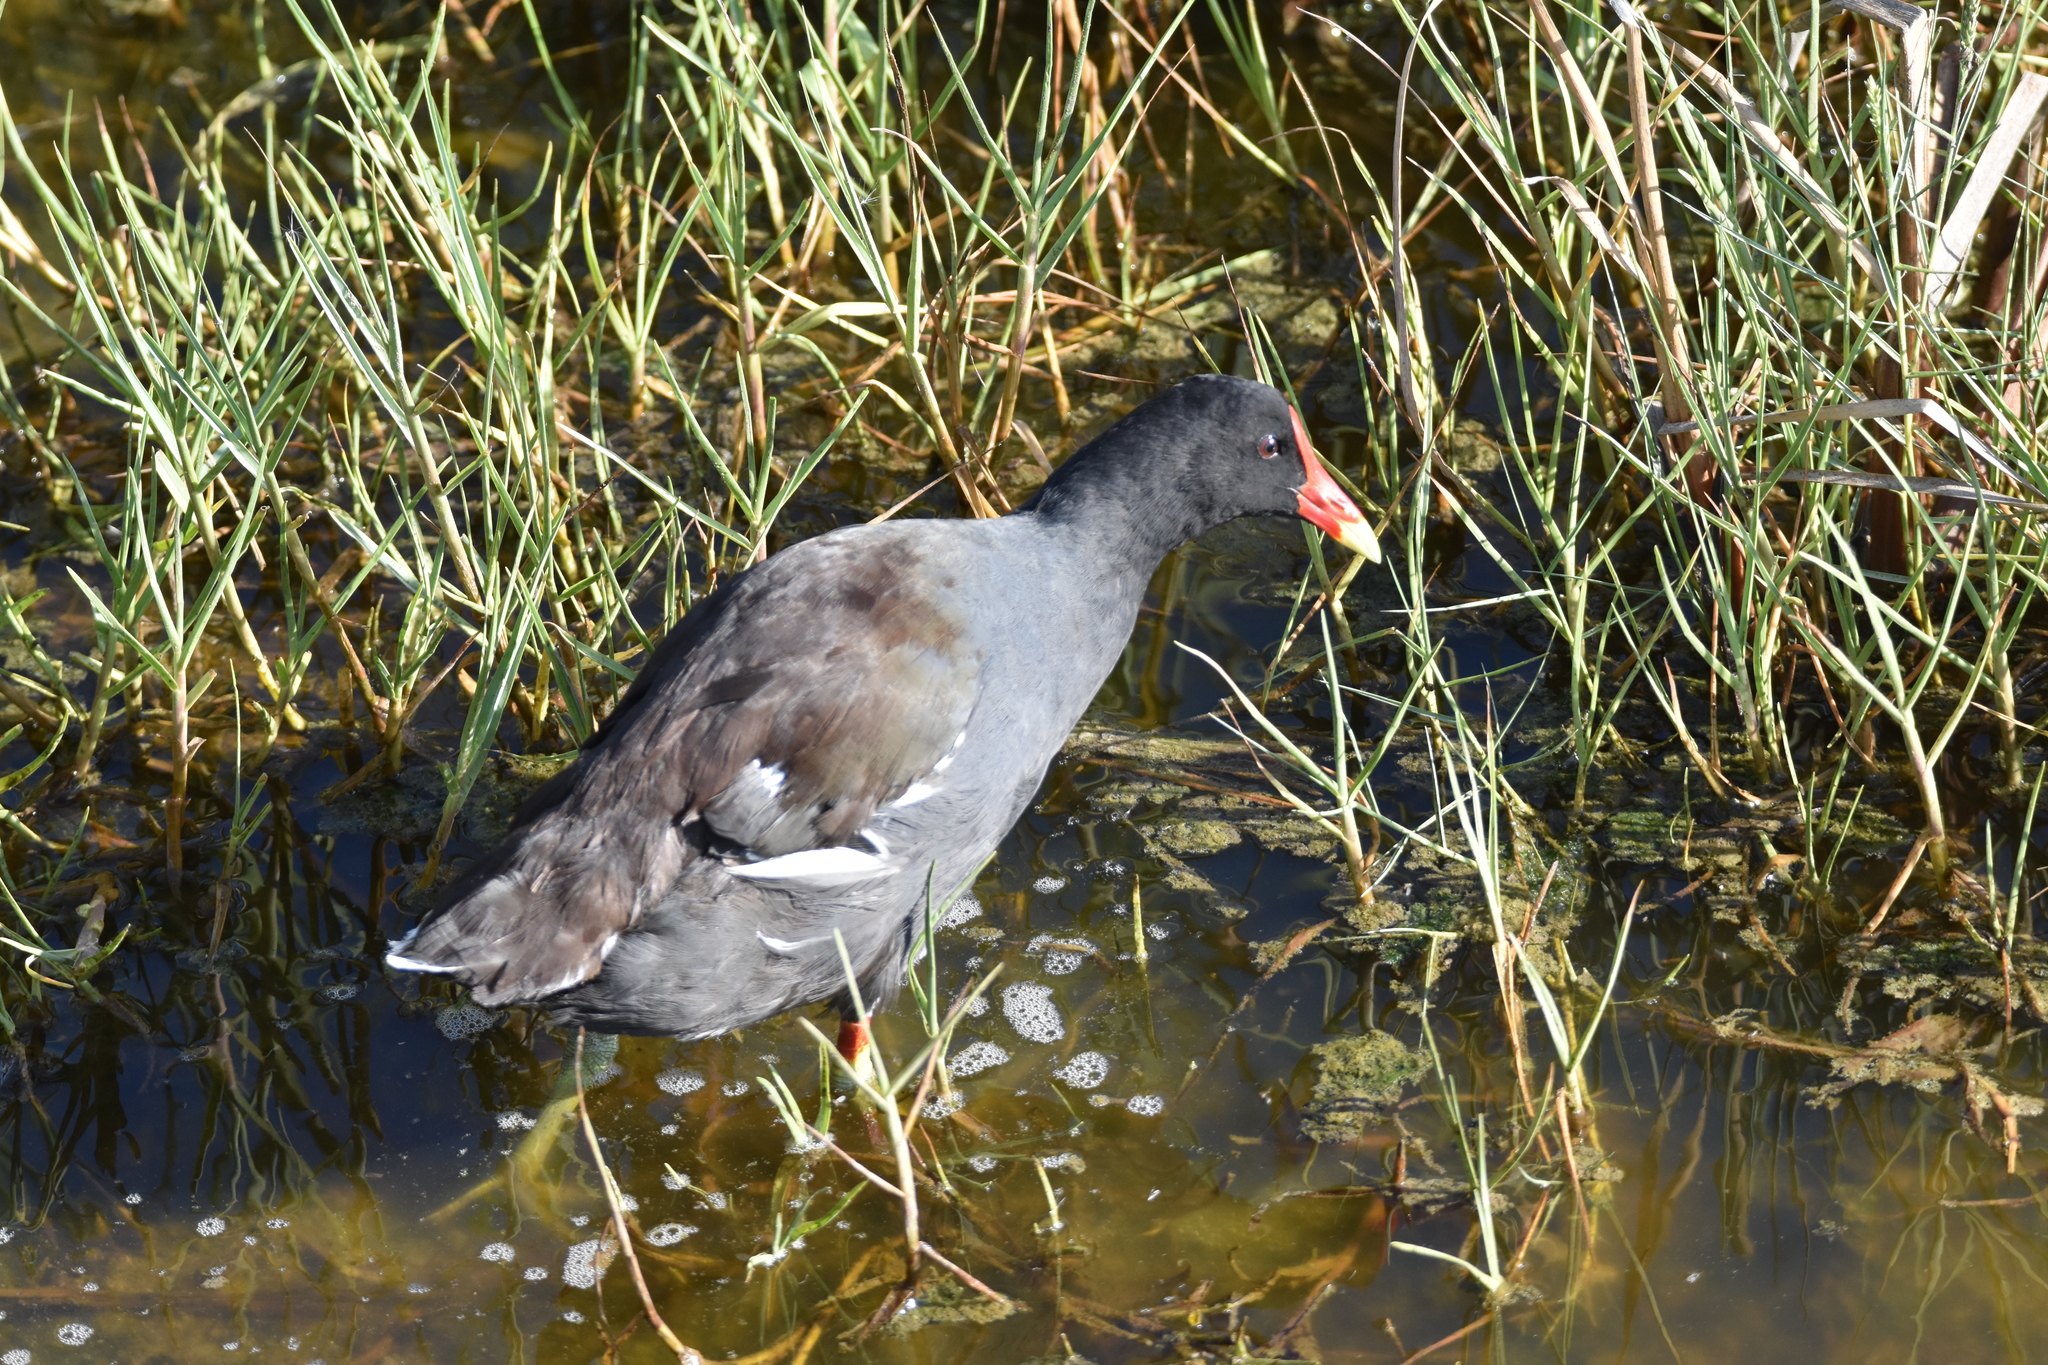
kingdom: Animalia
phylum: Chordata
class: Aves
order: Gruiformes
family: Rallidae
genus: Gallinula
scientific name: Gallinula chloropus
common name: Common moorhen
